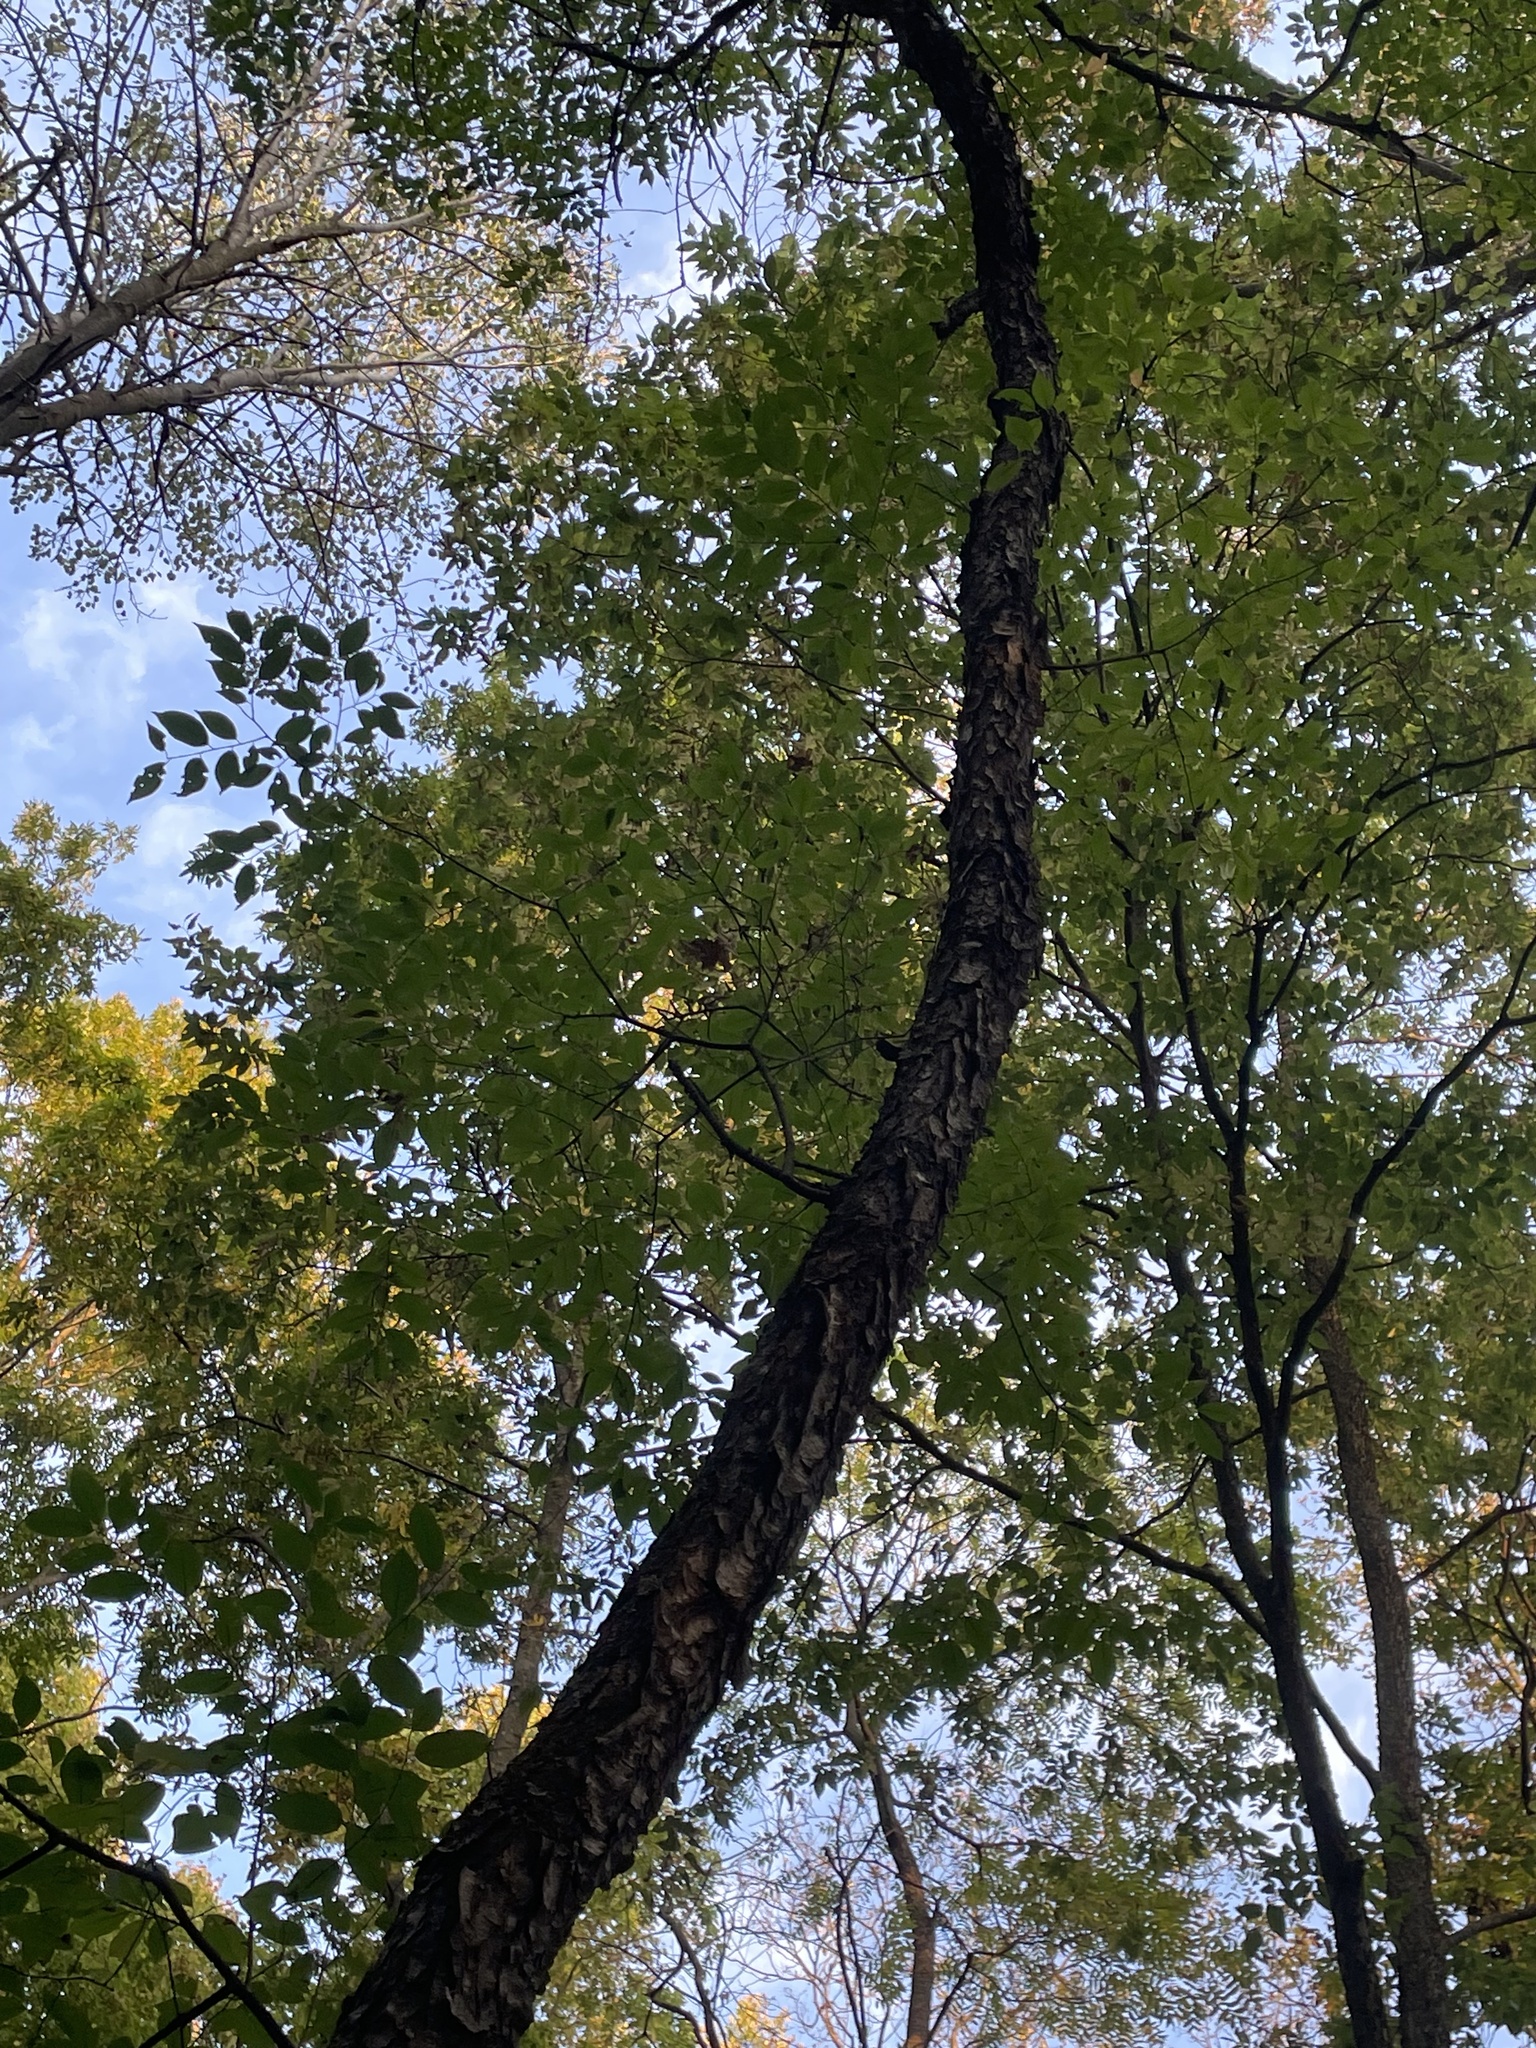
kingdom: Plantae
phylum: Tracheophyta
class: Magnoliopsida
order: Rosales
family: Rosaceae
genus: Prunus
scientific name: Prunus serotina
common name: Black cherry
